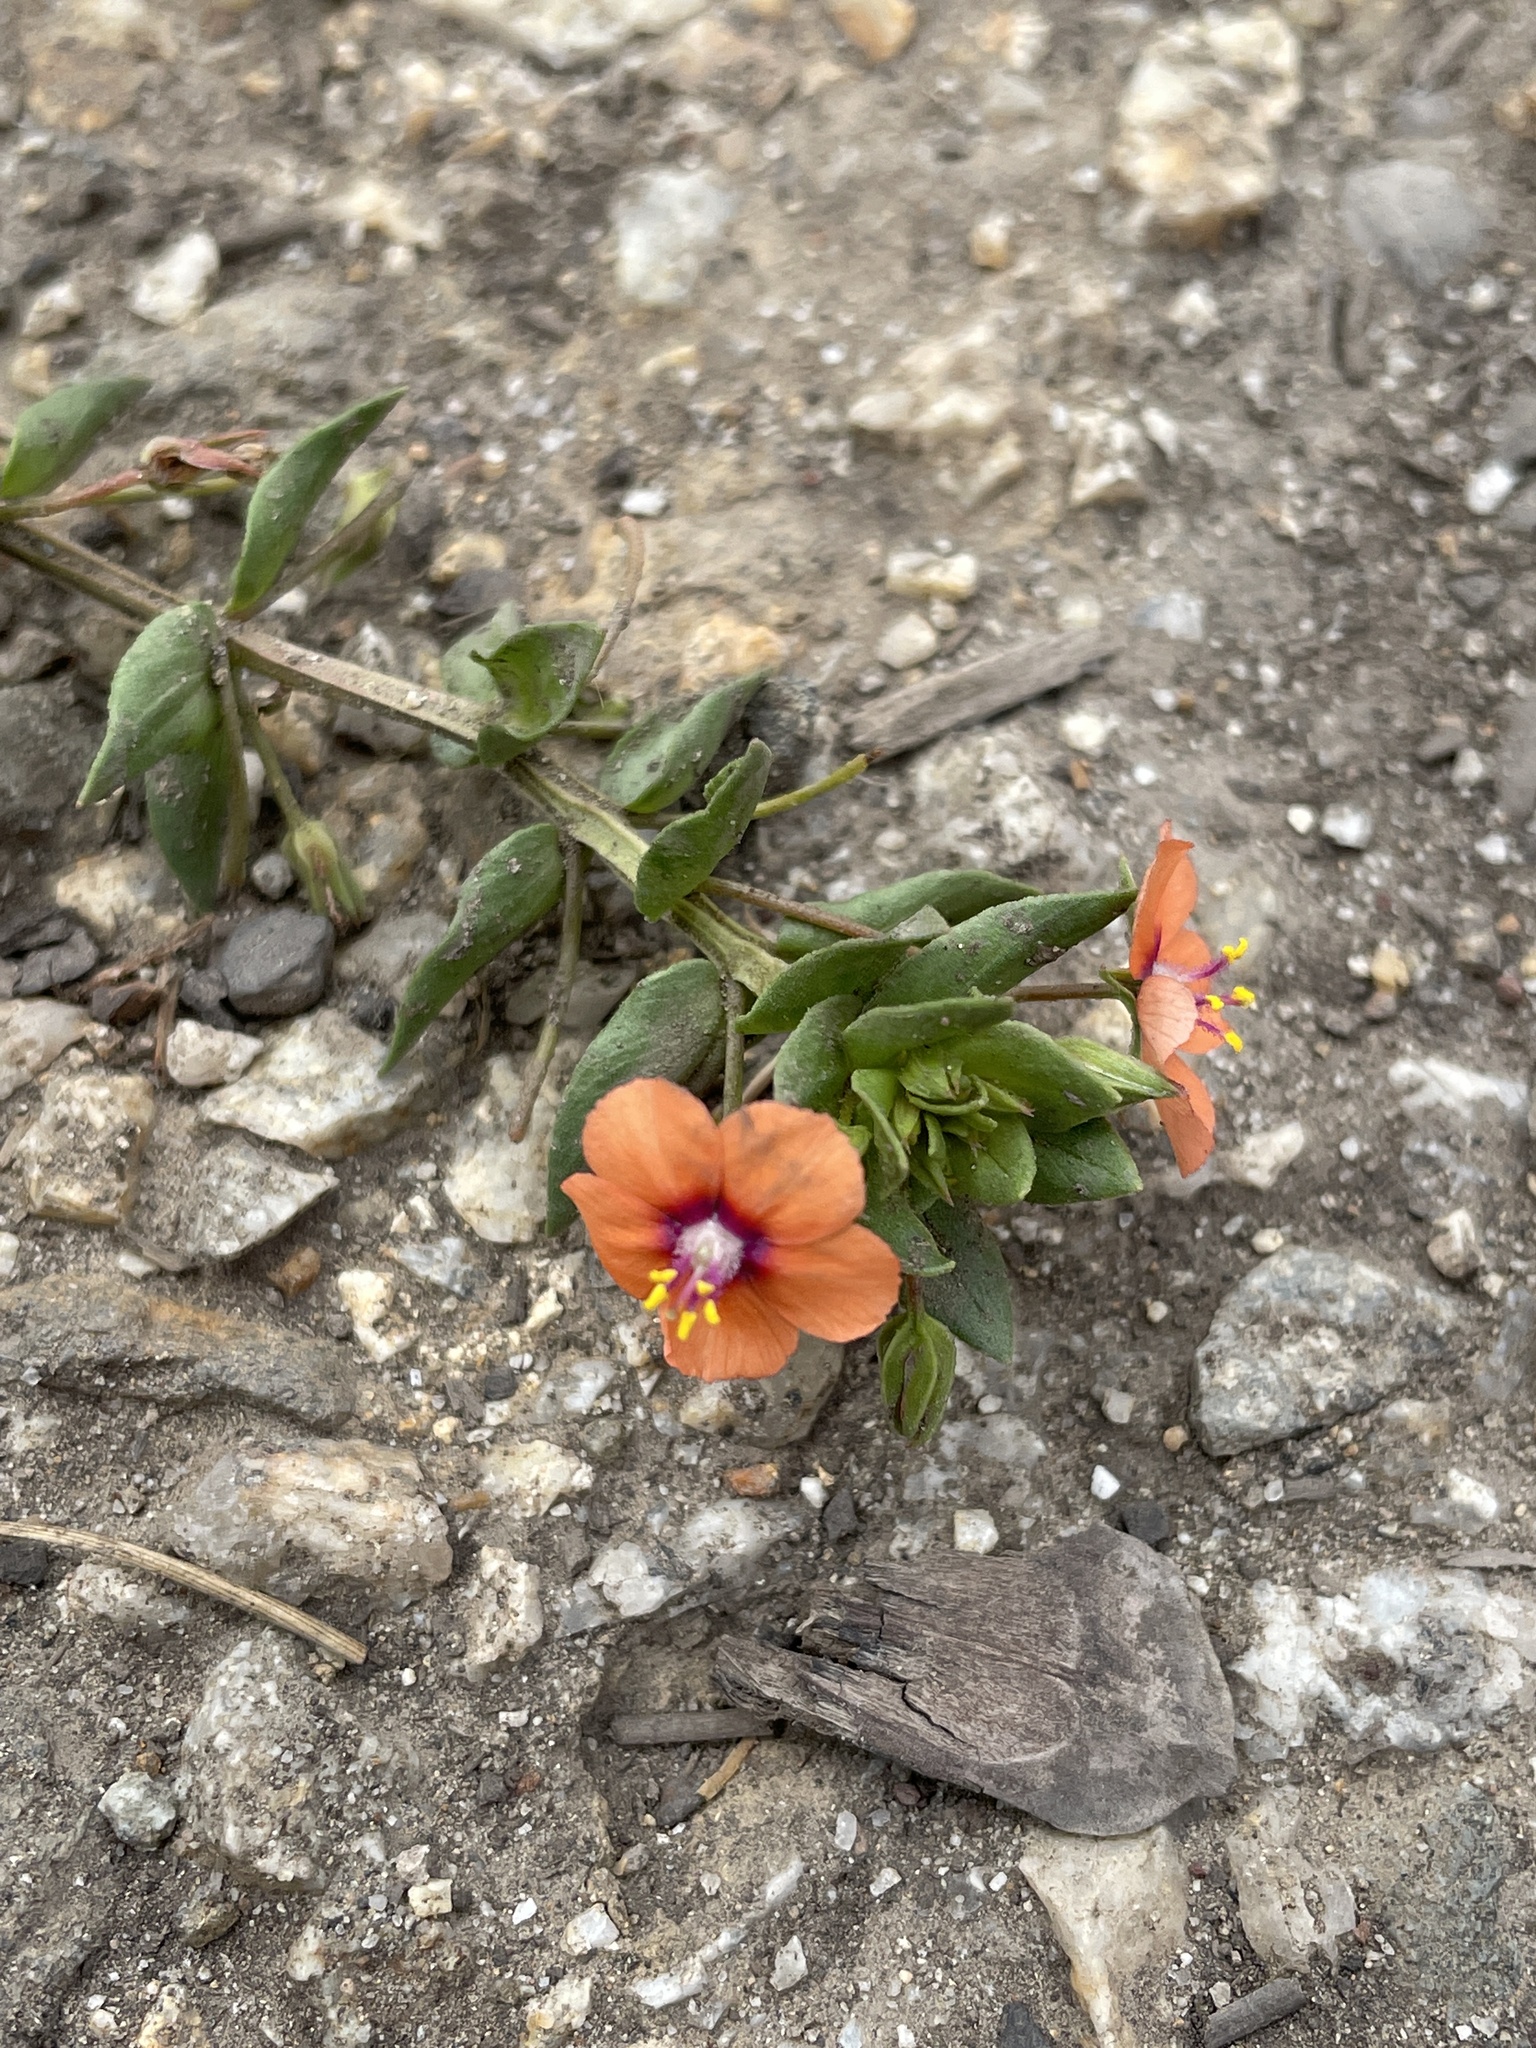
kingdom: Plantae
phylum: Tracheophyta
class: Magnoliopsida
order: Ericales
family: Primulaceae
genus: Lysimachia
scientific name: Lysimachia arvensis
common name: Scarlet pimpernel
